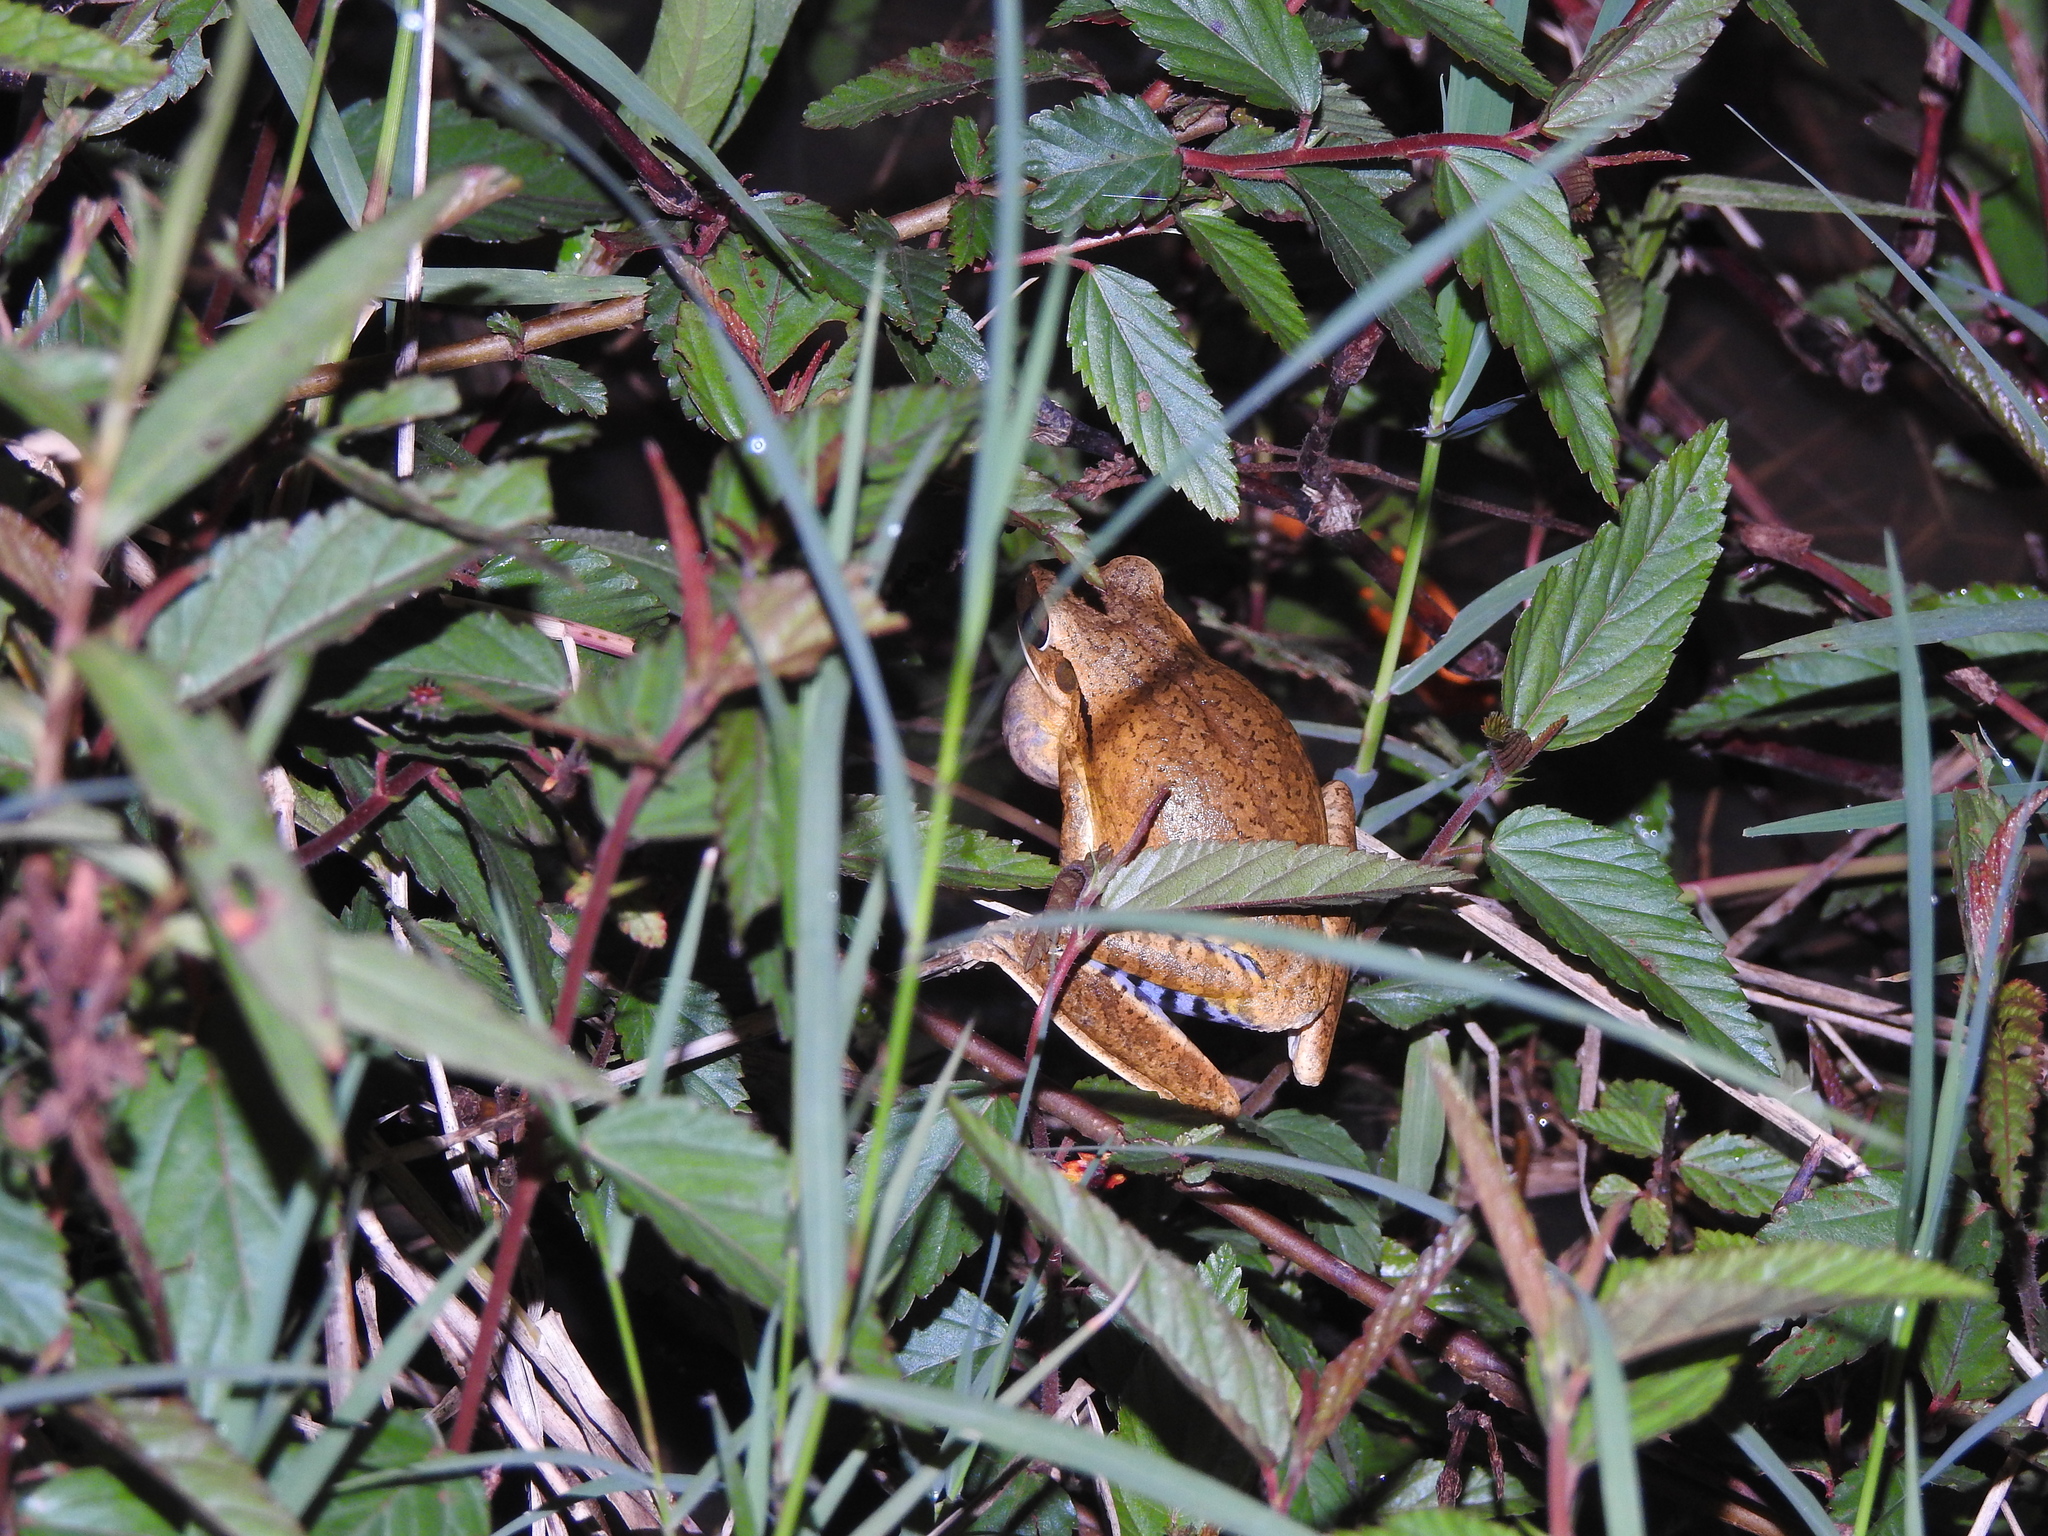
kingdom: Animalia
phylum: Chordata
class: Amphibia
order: Anura
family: Hylidae
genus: Boana
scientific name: Boana raniceps
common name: Chaco treefrog
